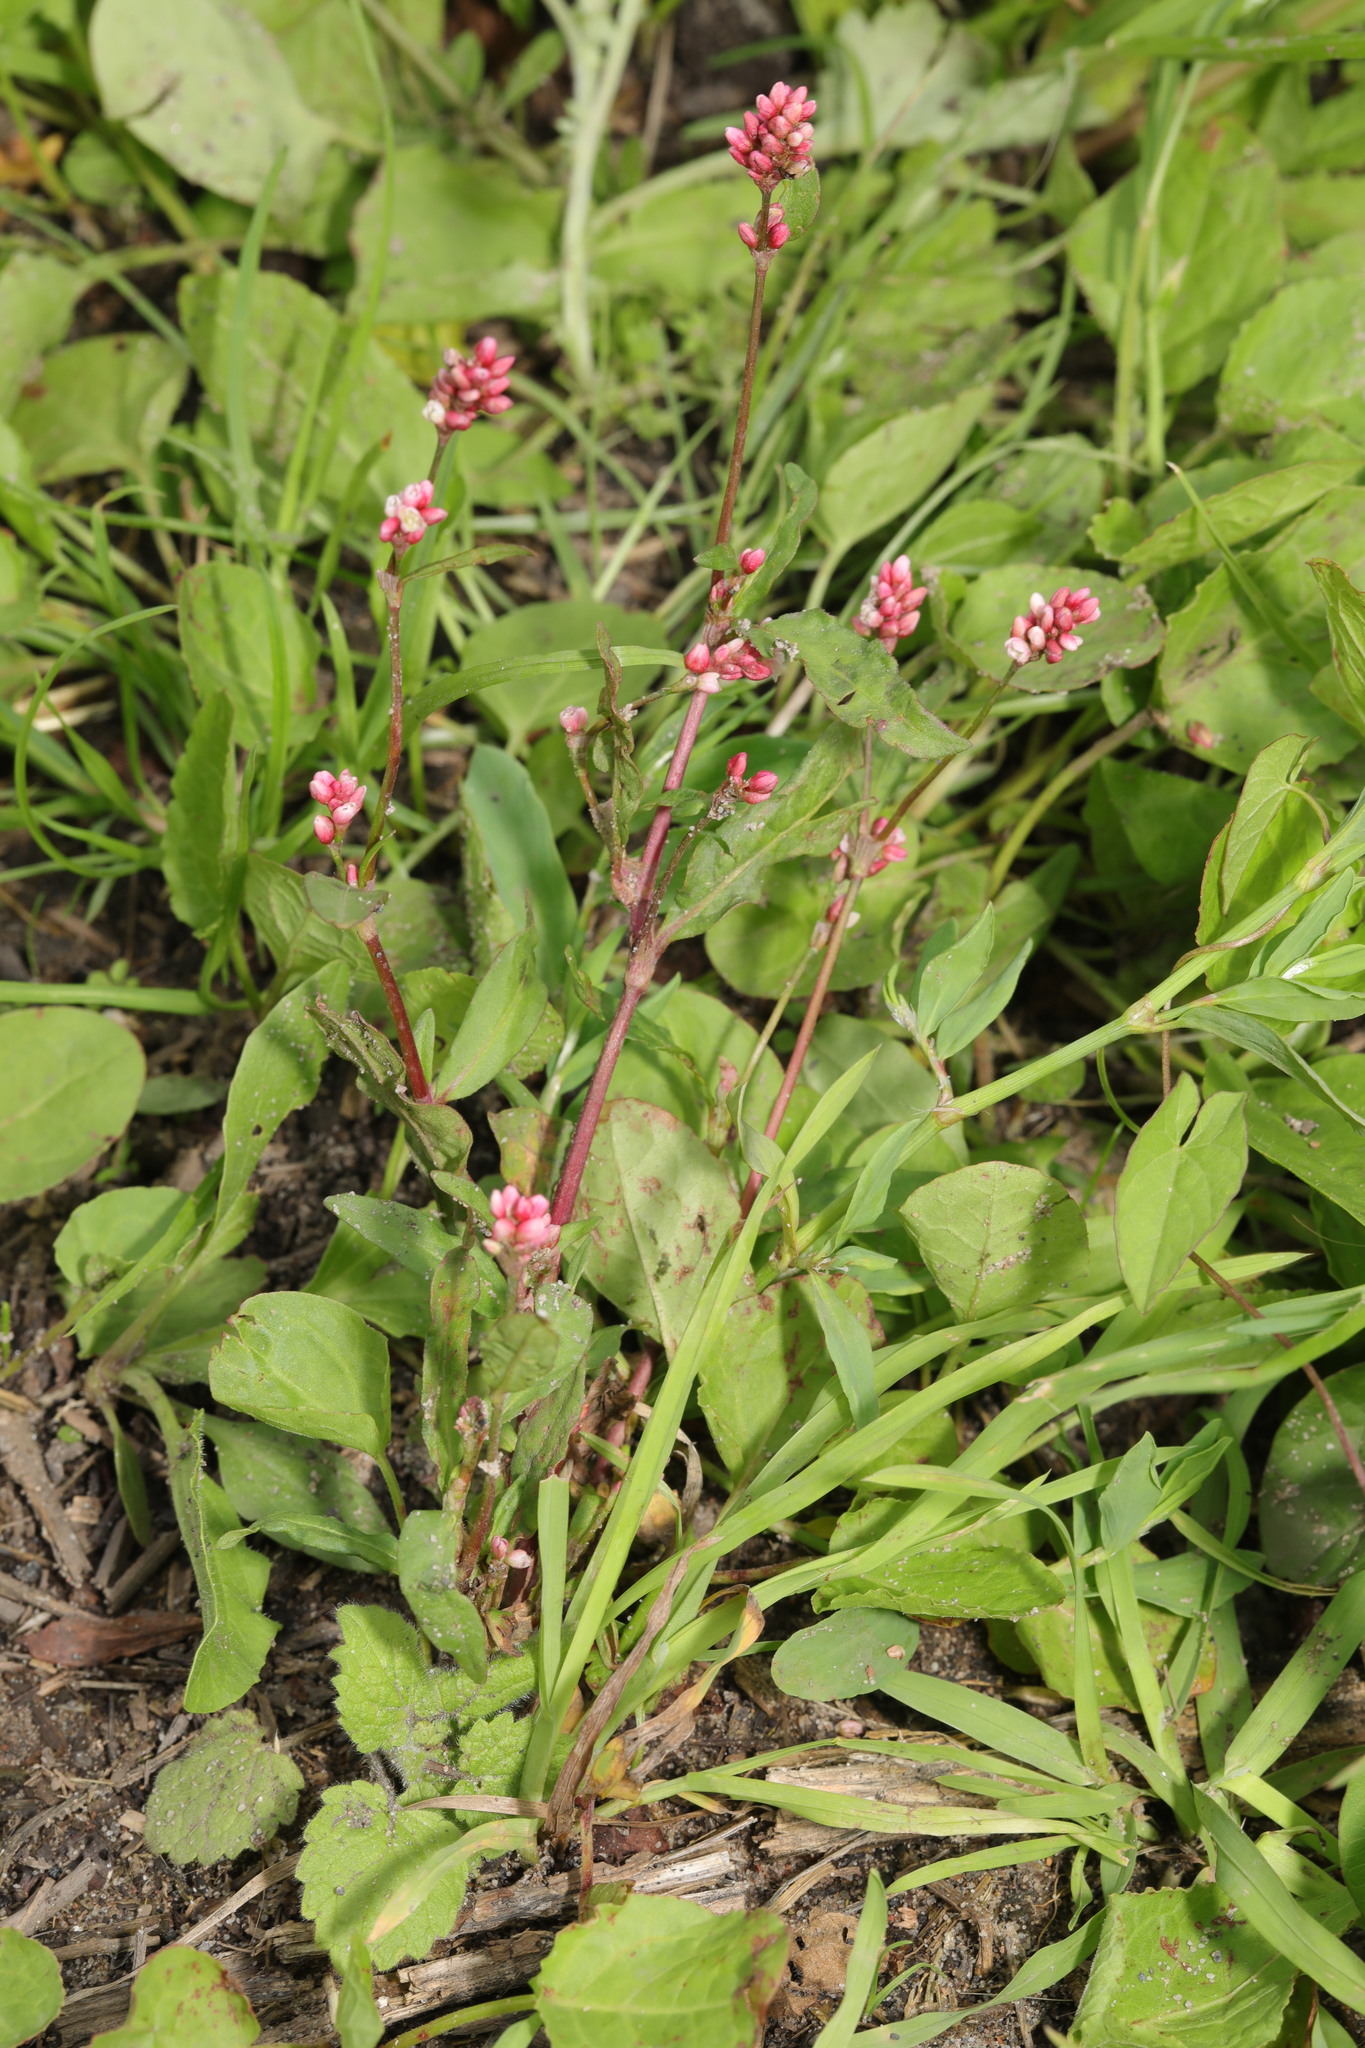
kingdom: Plantae
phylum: Tracheophyta
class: Magnoliopsida
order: Caryophyllales
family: Polygonaceae
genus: Persicaria
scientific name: Persicaria maculosa
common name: Redshank
